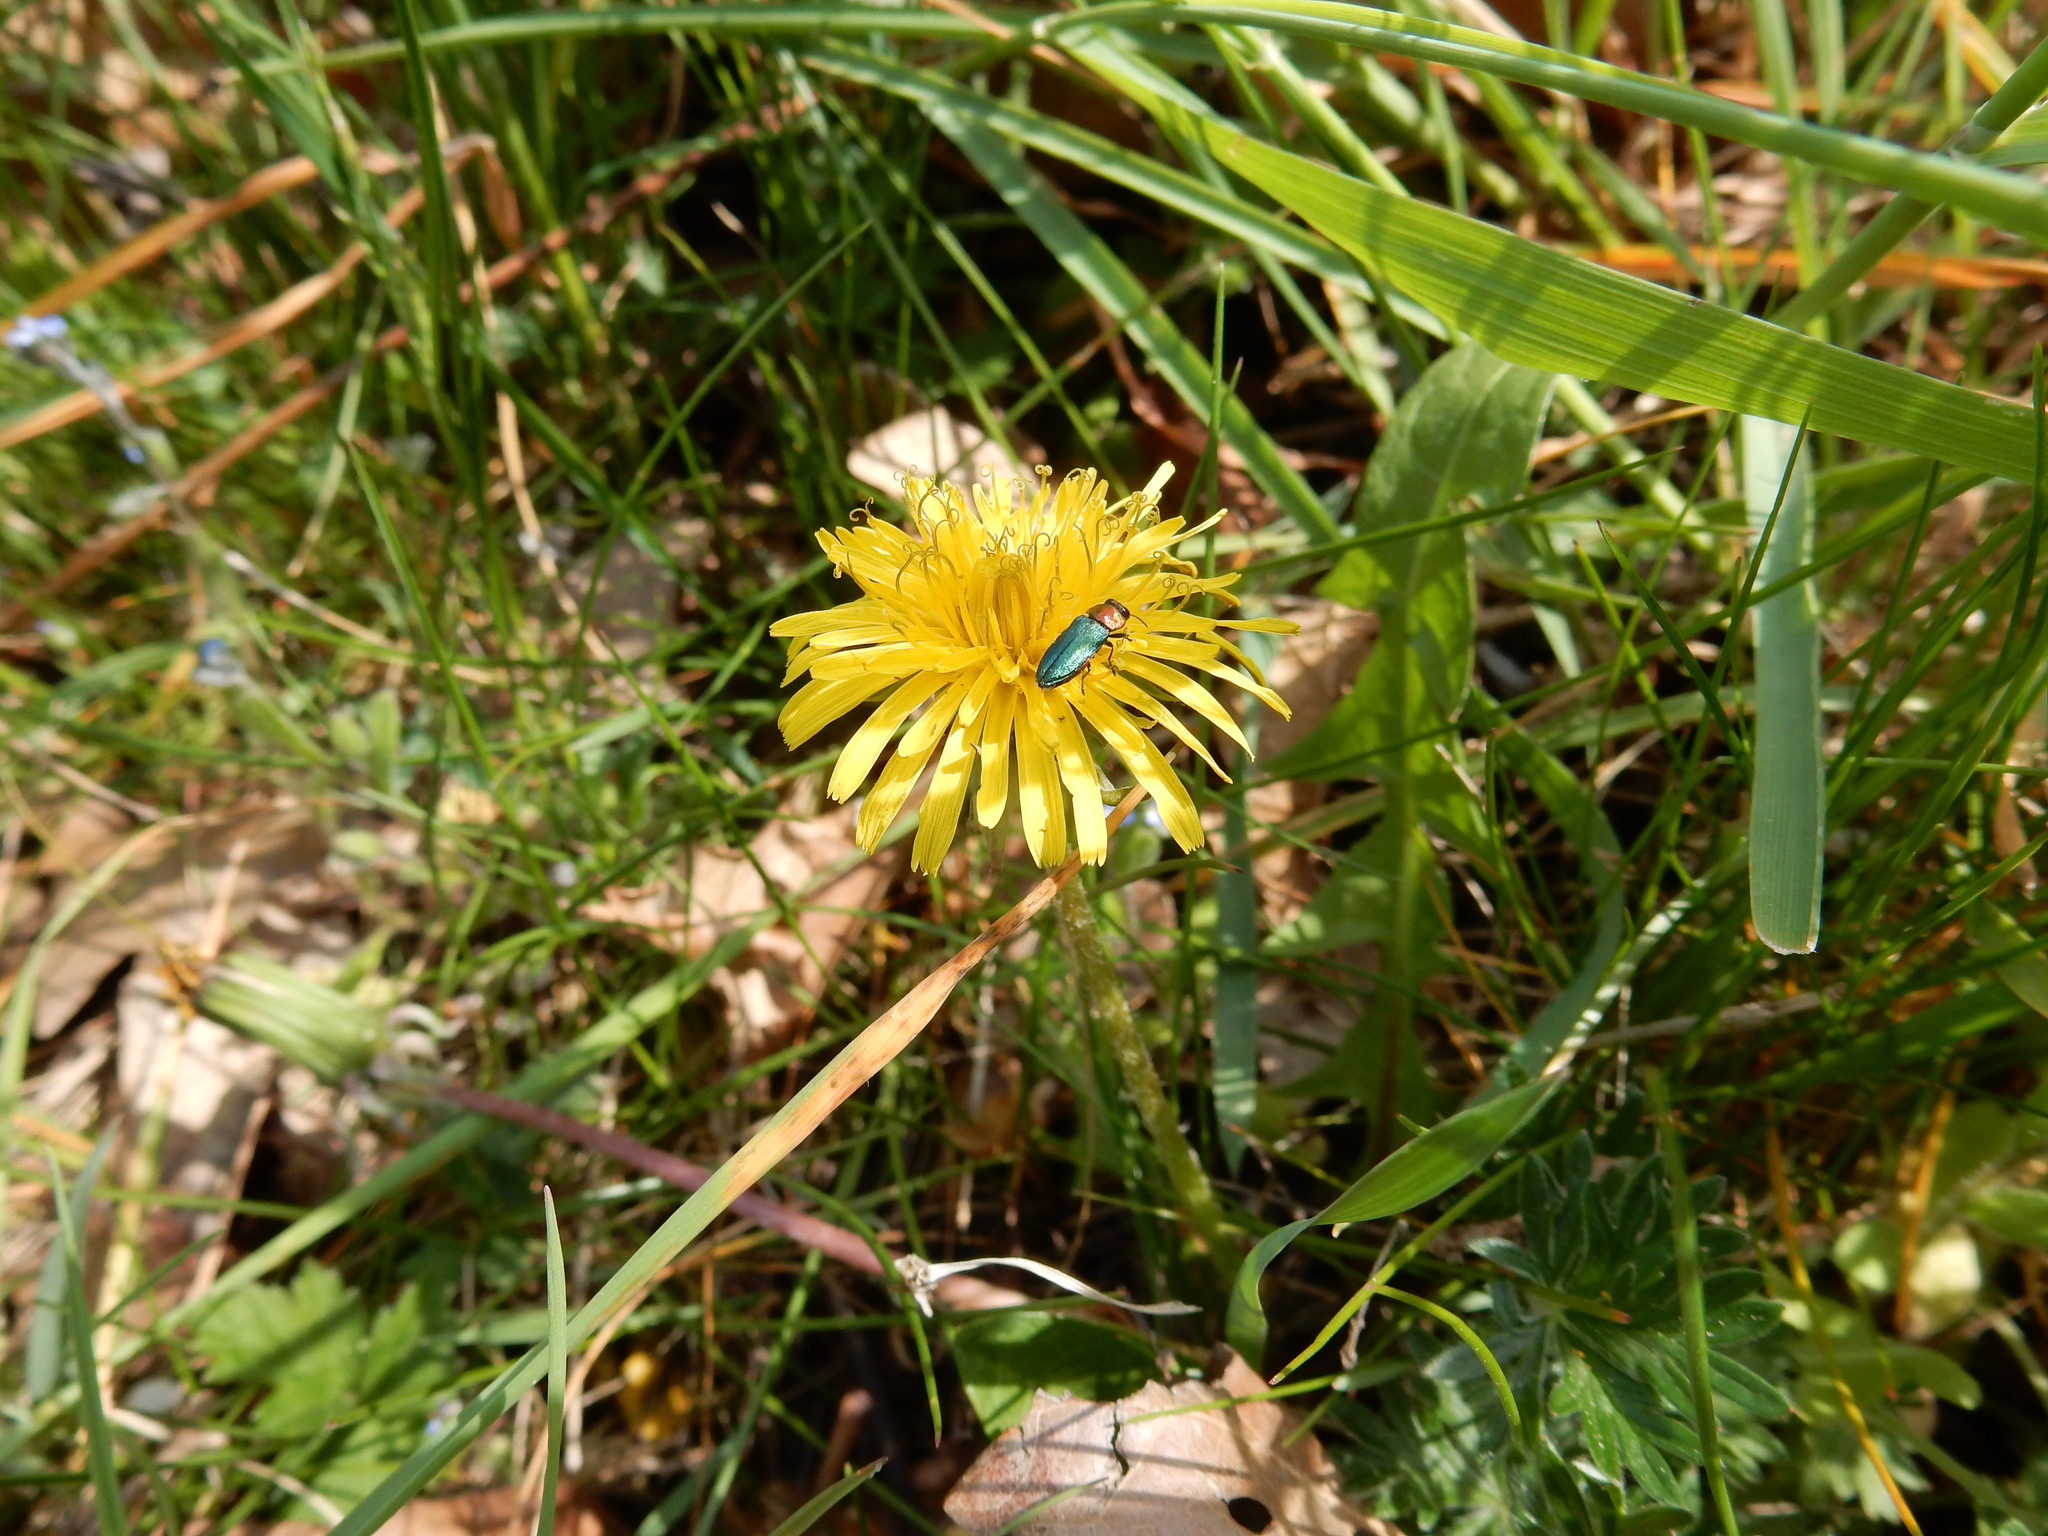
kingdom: Animalia
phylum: Arthropoda
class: Insecta
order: Coleoptera
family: Buprestidae
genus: Anthaxia
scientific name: Anthaxia nitidula
